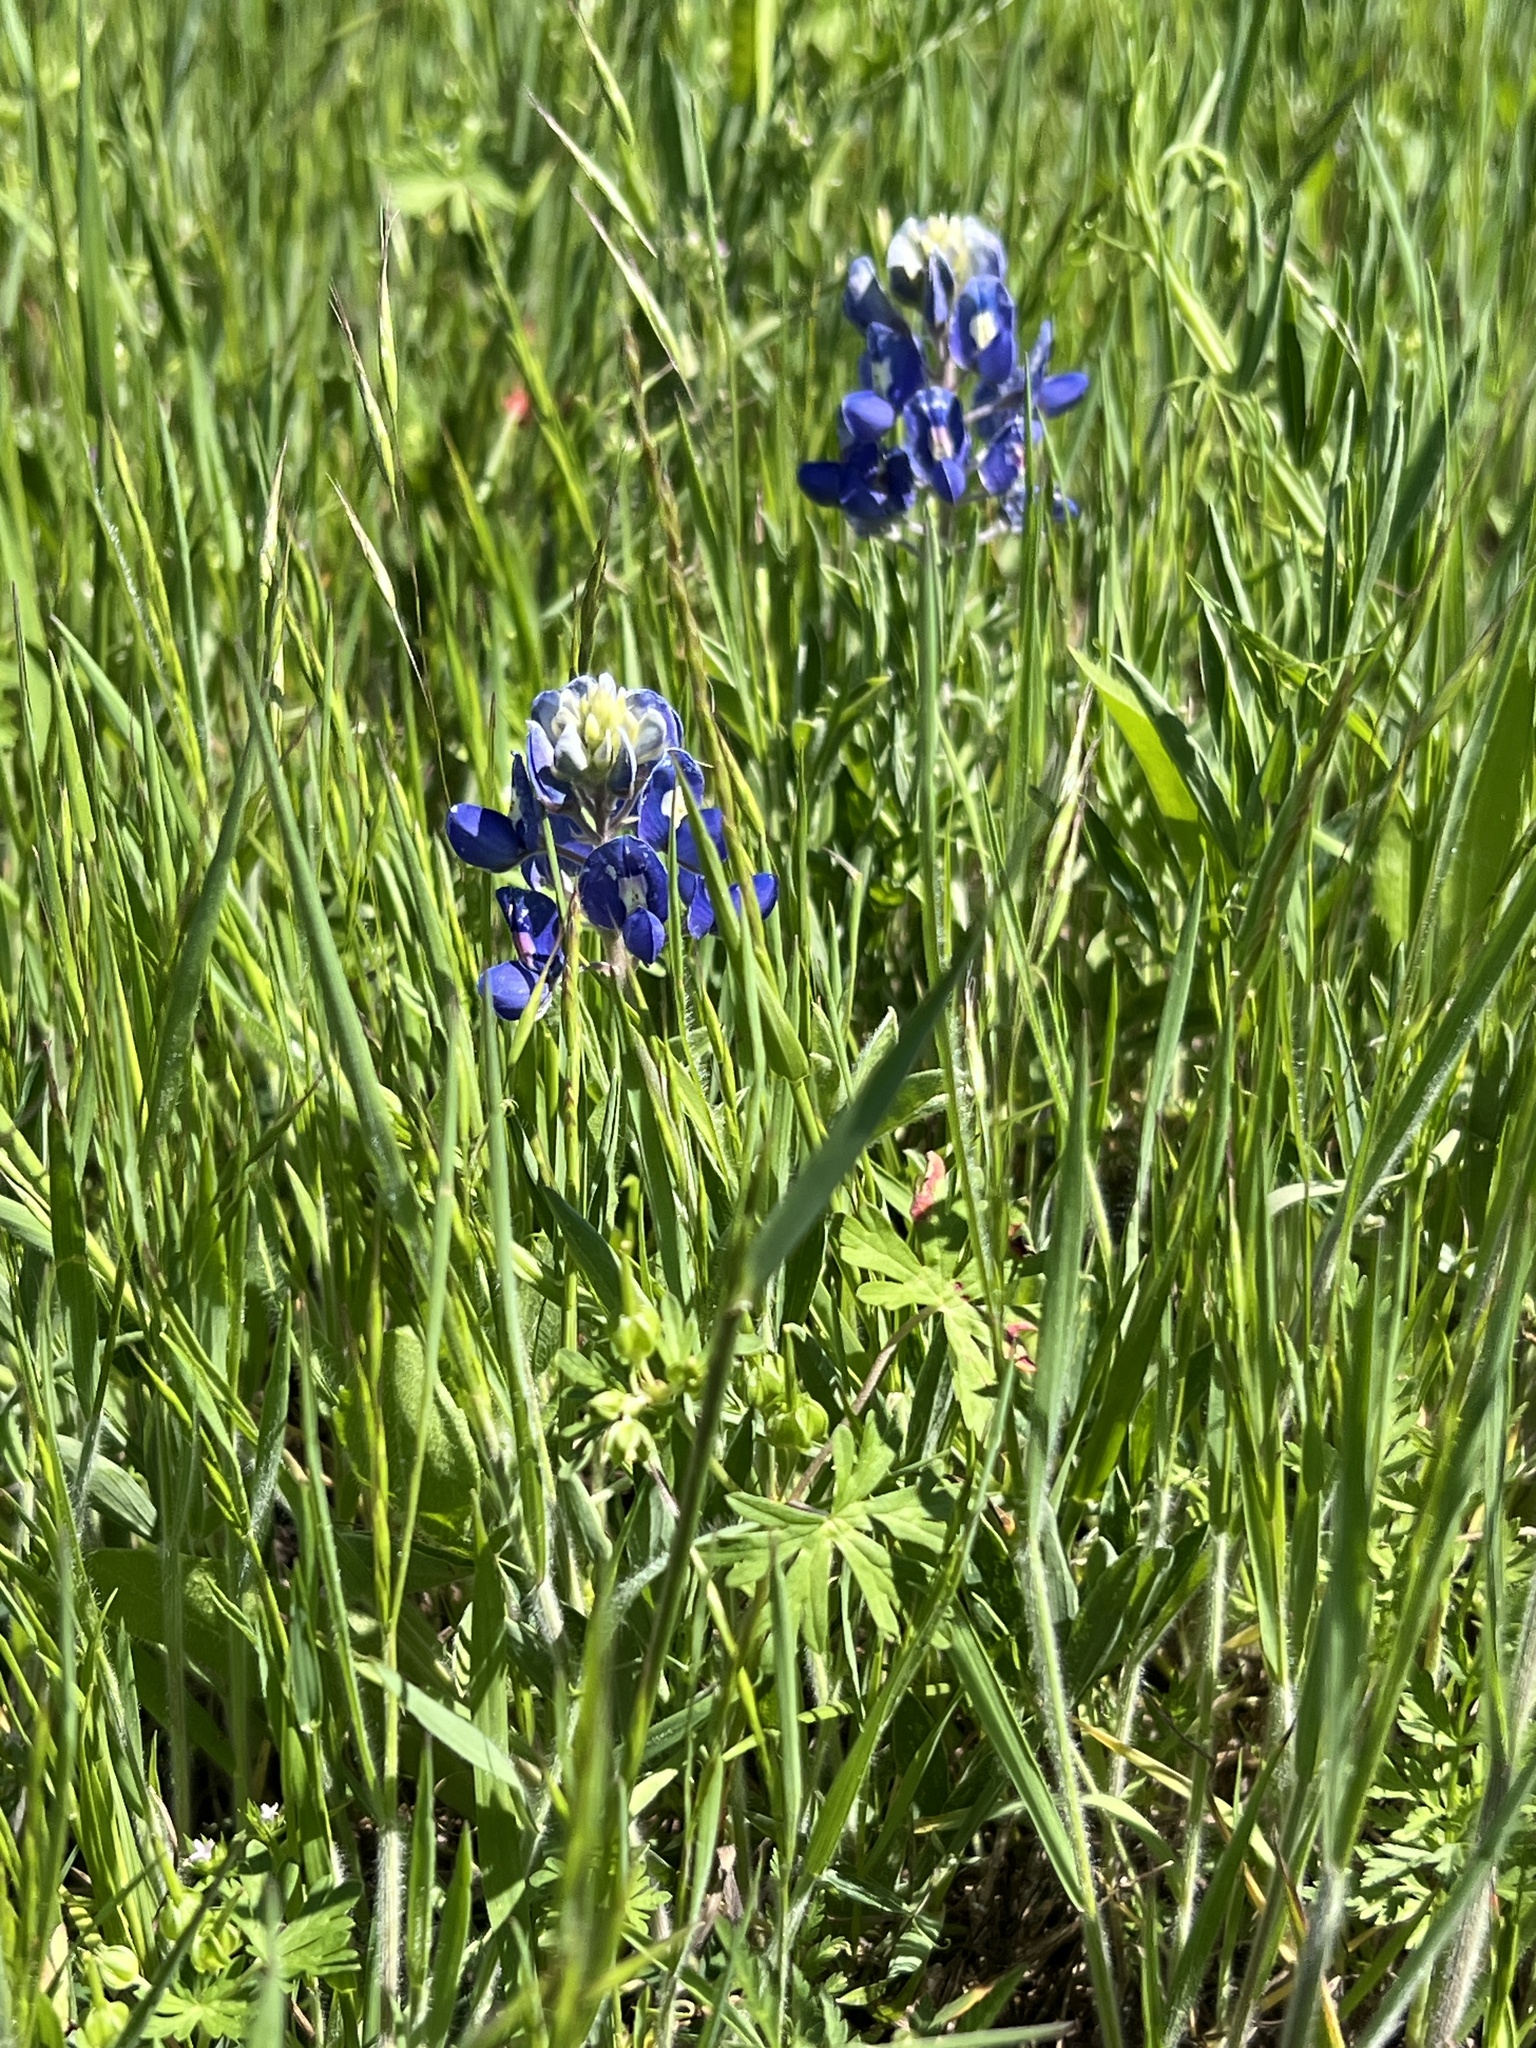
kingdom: Plantae
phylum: Tracheophyta
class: Magnoliopsida
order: Fabales
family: Fabaceae
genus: Lupinus
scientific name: Lupinus texensis
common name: Texas bluebonnet
